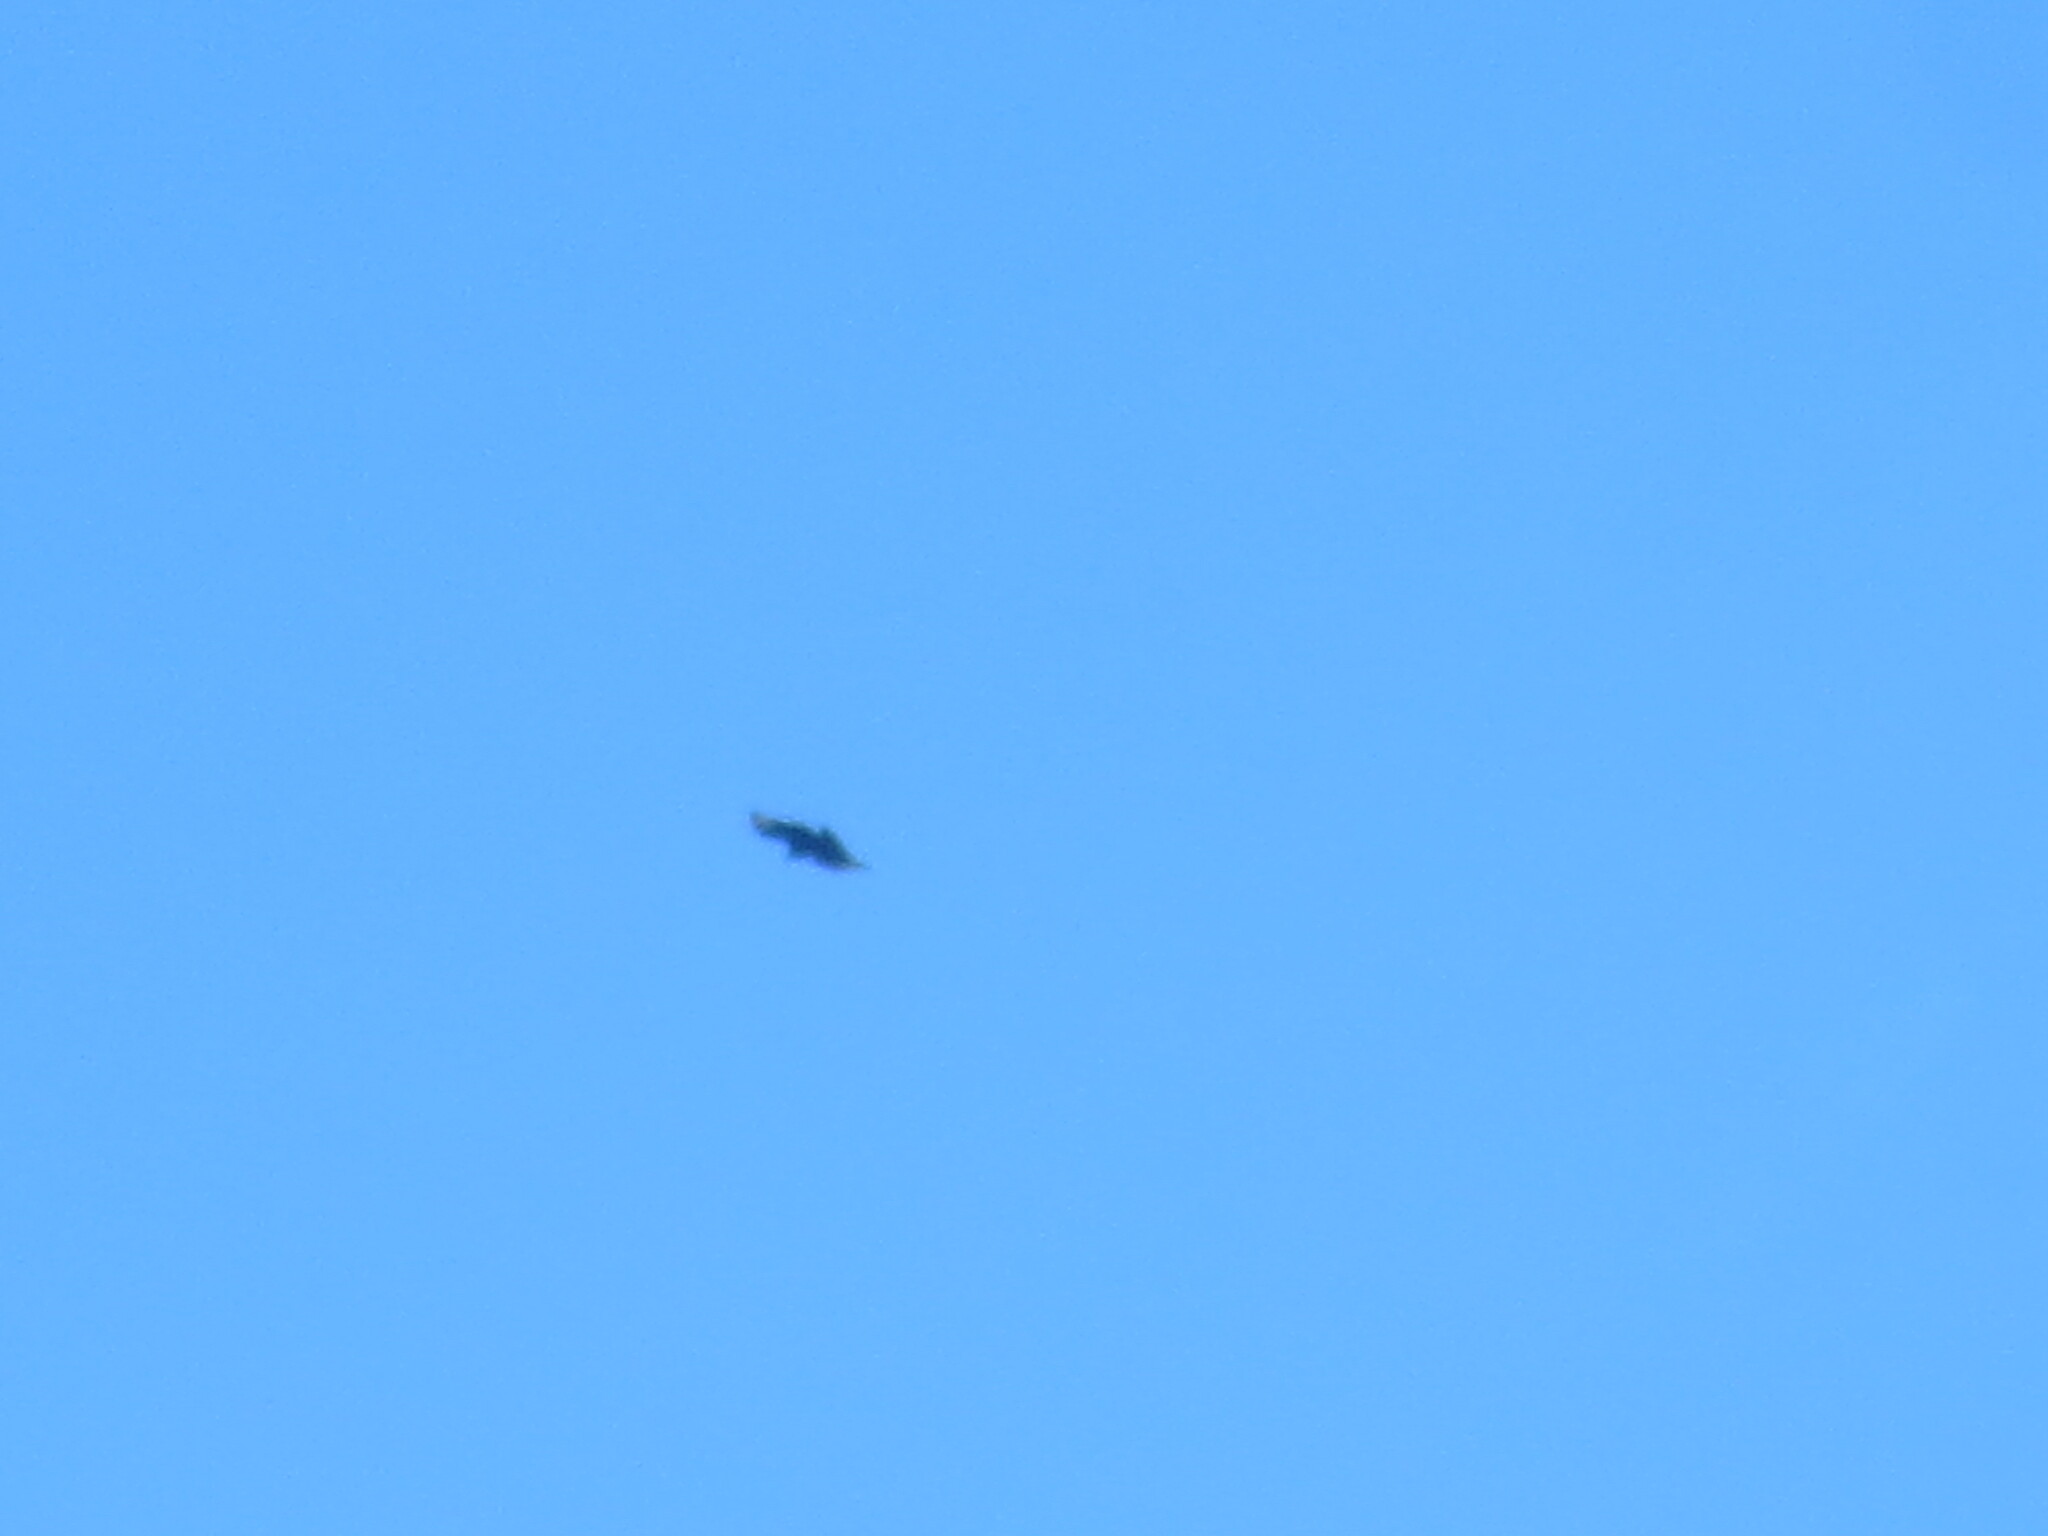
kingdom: Animalia
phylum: Chordata
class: Aves
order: Accipitriformes
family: Cathartidae
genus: Coragyps
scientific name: Coragyps atratus
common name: Black vulture
